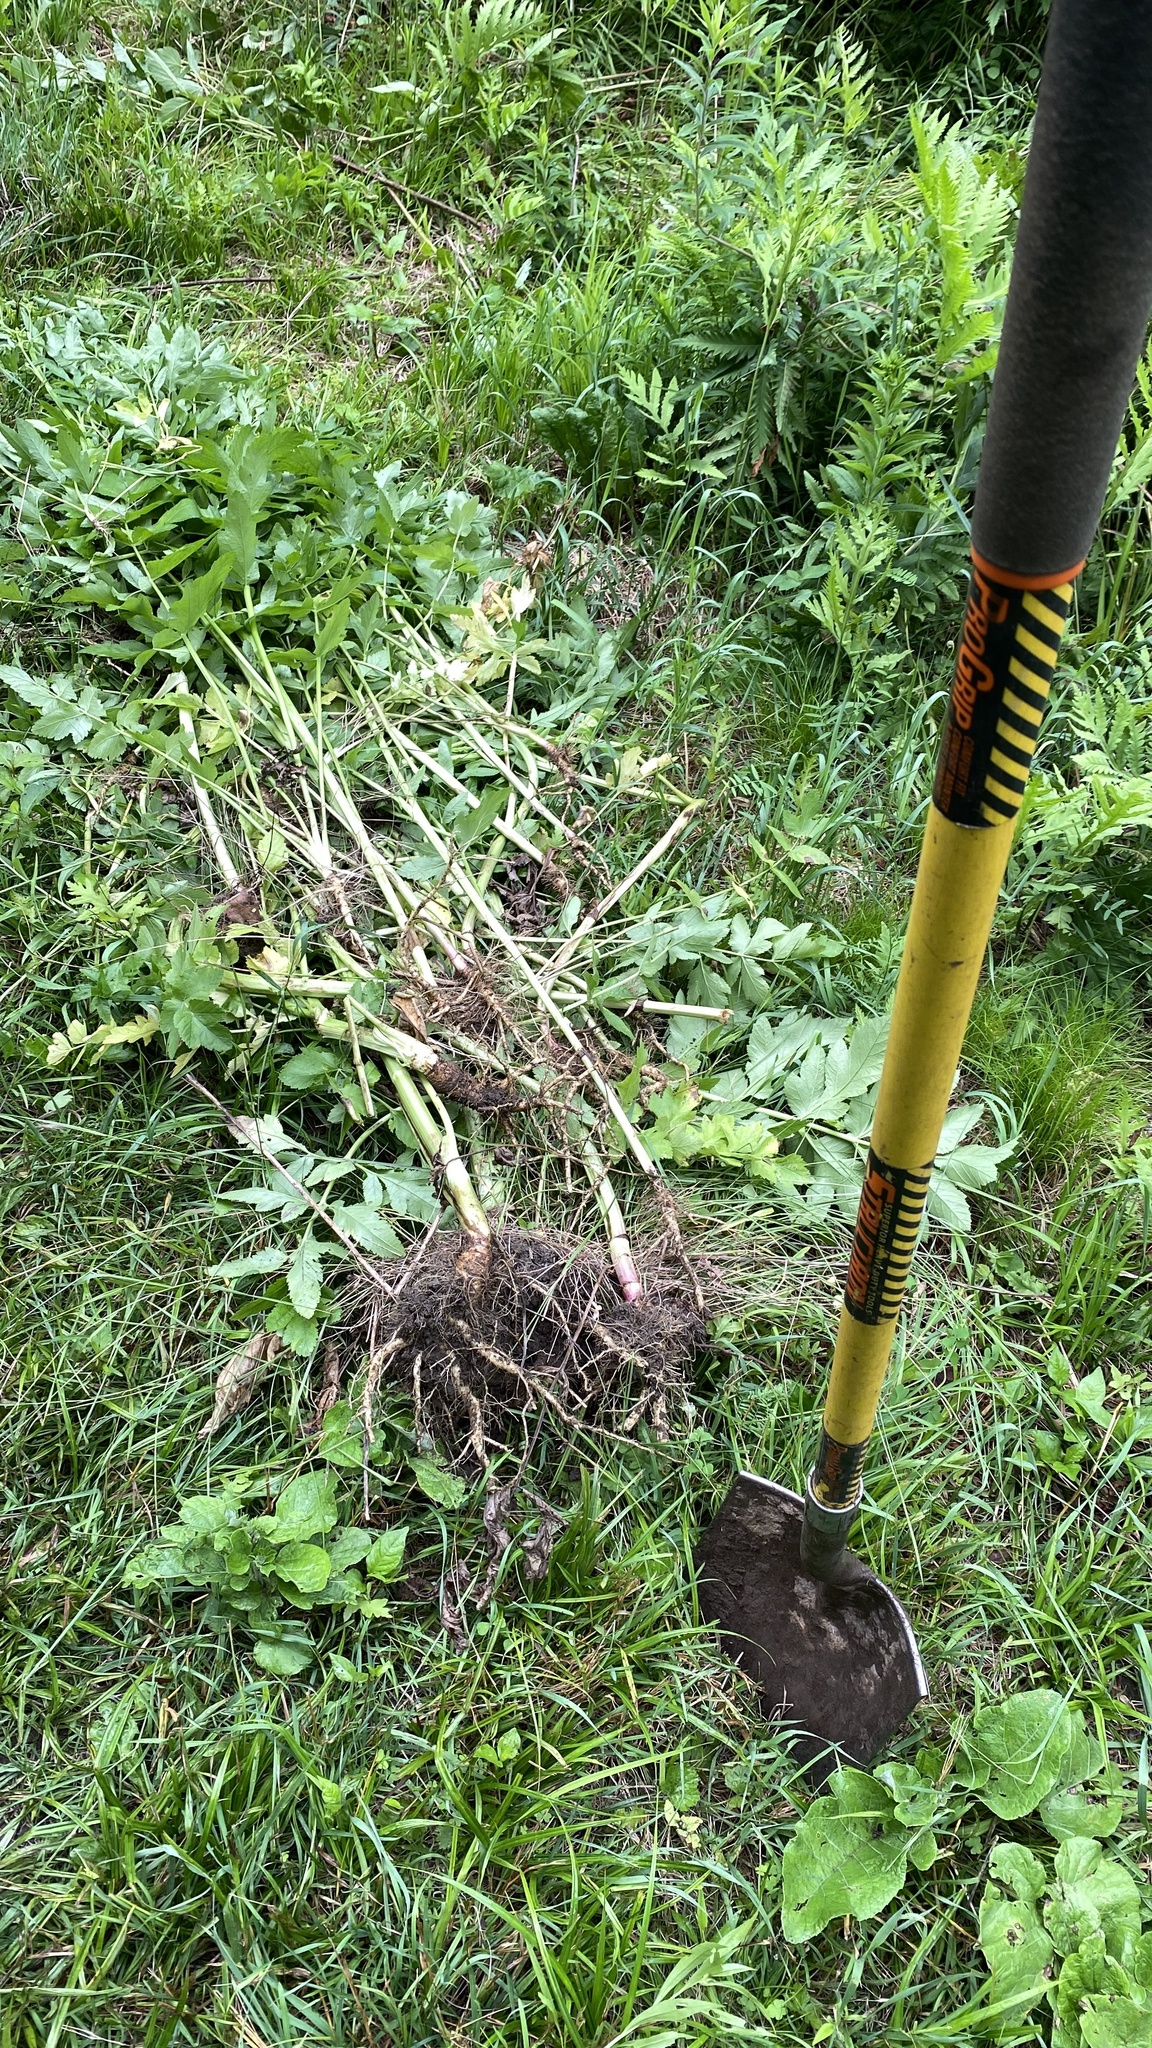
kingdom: Plantae
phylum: Tracheophyta
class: Magnoliopsida
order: Apiales
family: Apiaceae
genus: Pastinaca
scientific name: Pastinaca sativa
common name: Wild parsnip
